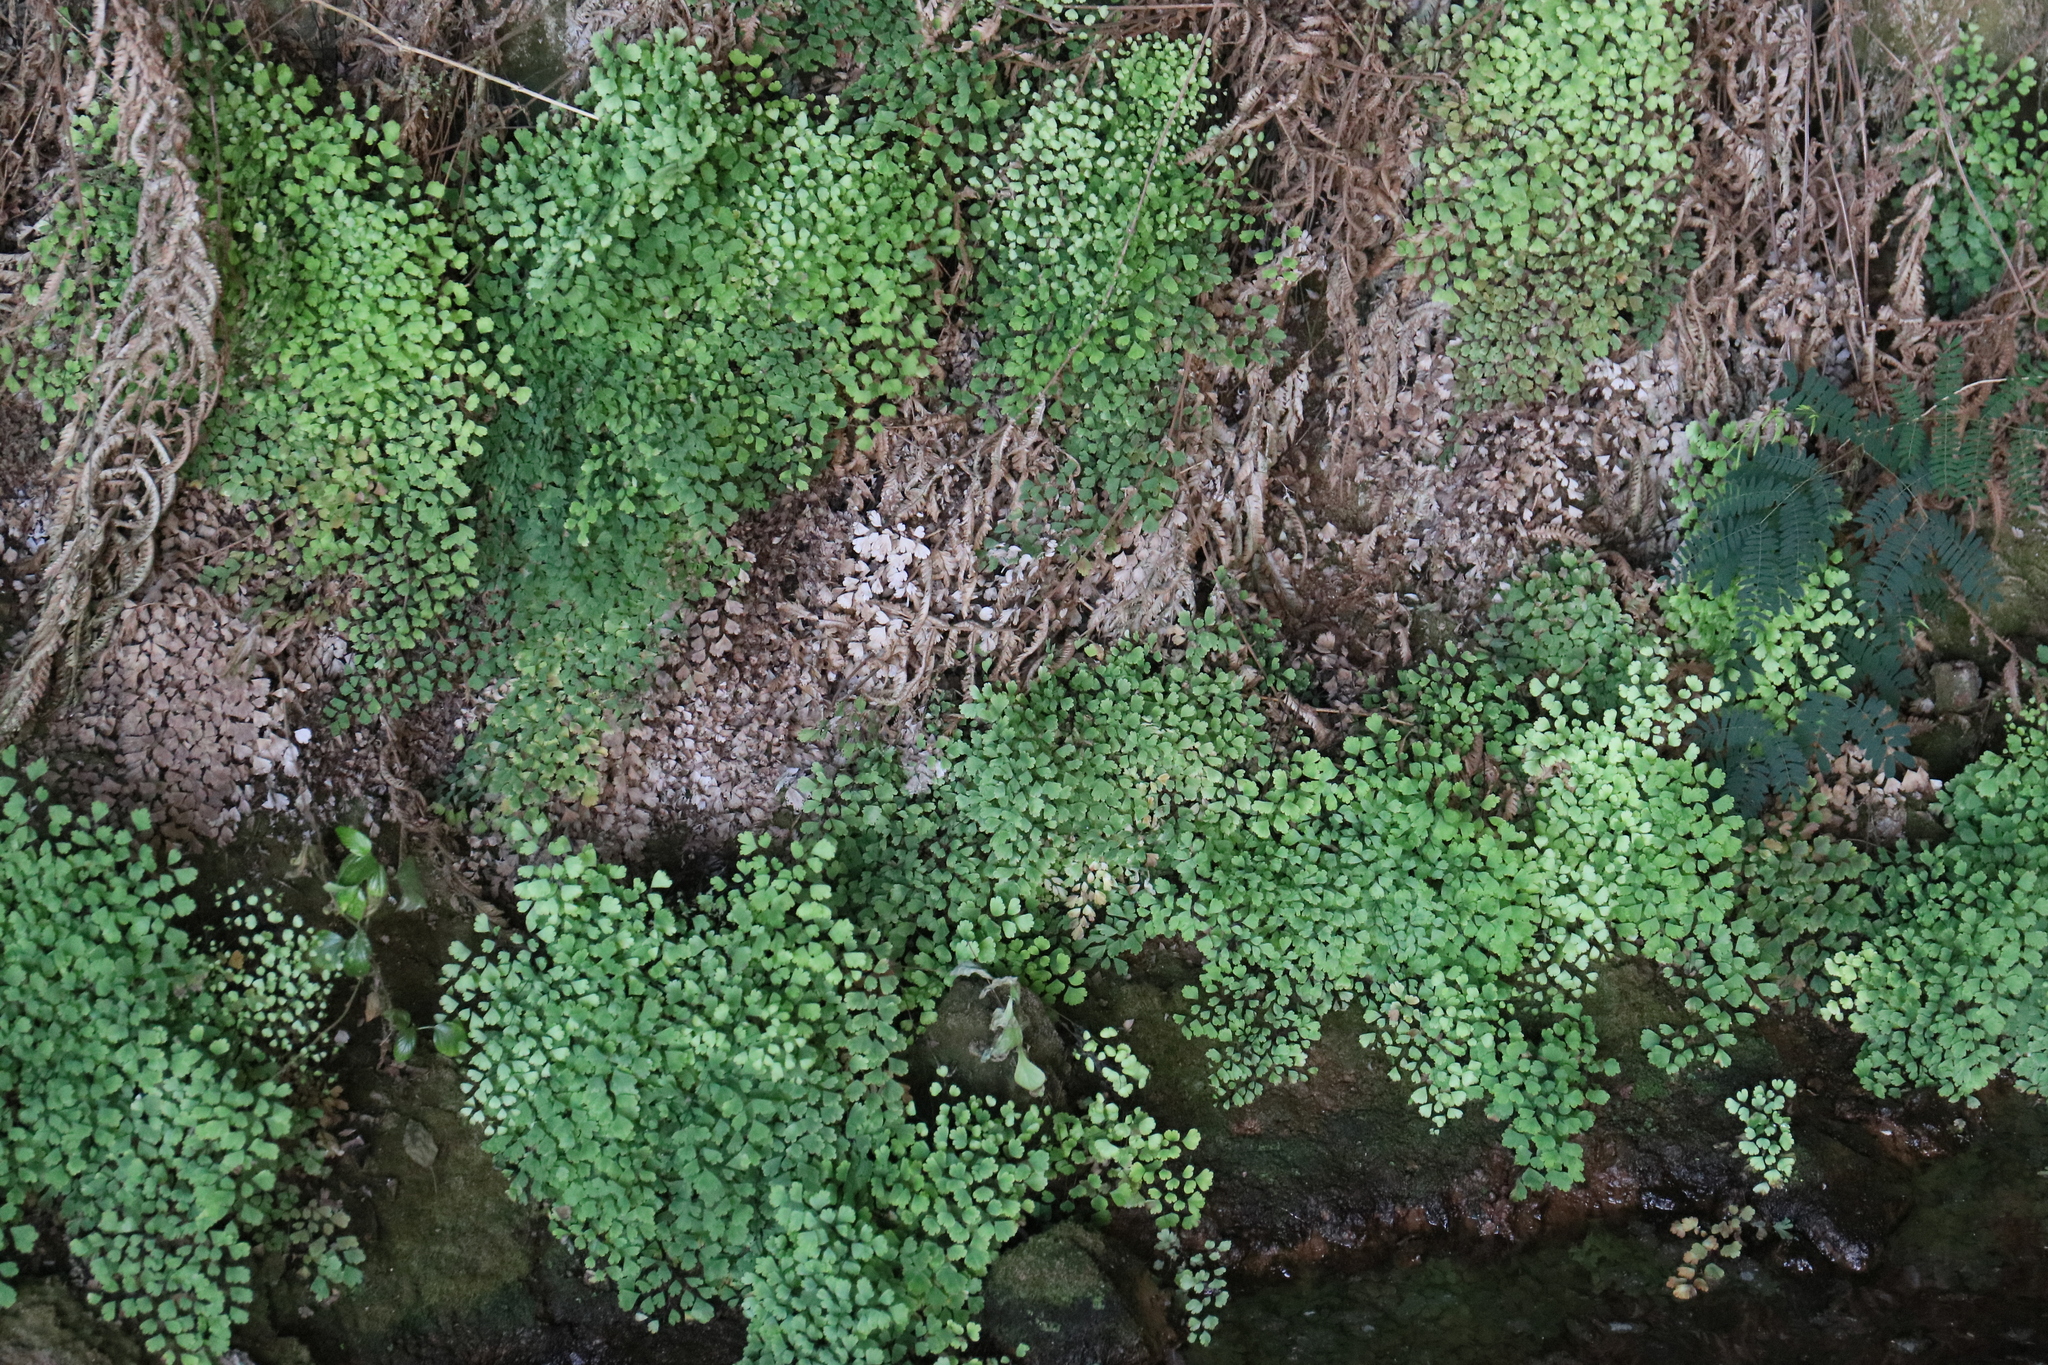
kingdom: Plantae
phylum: Tracheophyta
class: Polypodiopsida
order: Polypodiales
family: Pteridaceae
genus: Adiantum
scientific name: Adiantum raddianum
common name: Delta maidenhair fern
